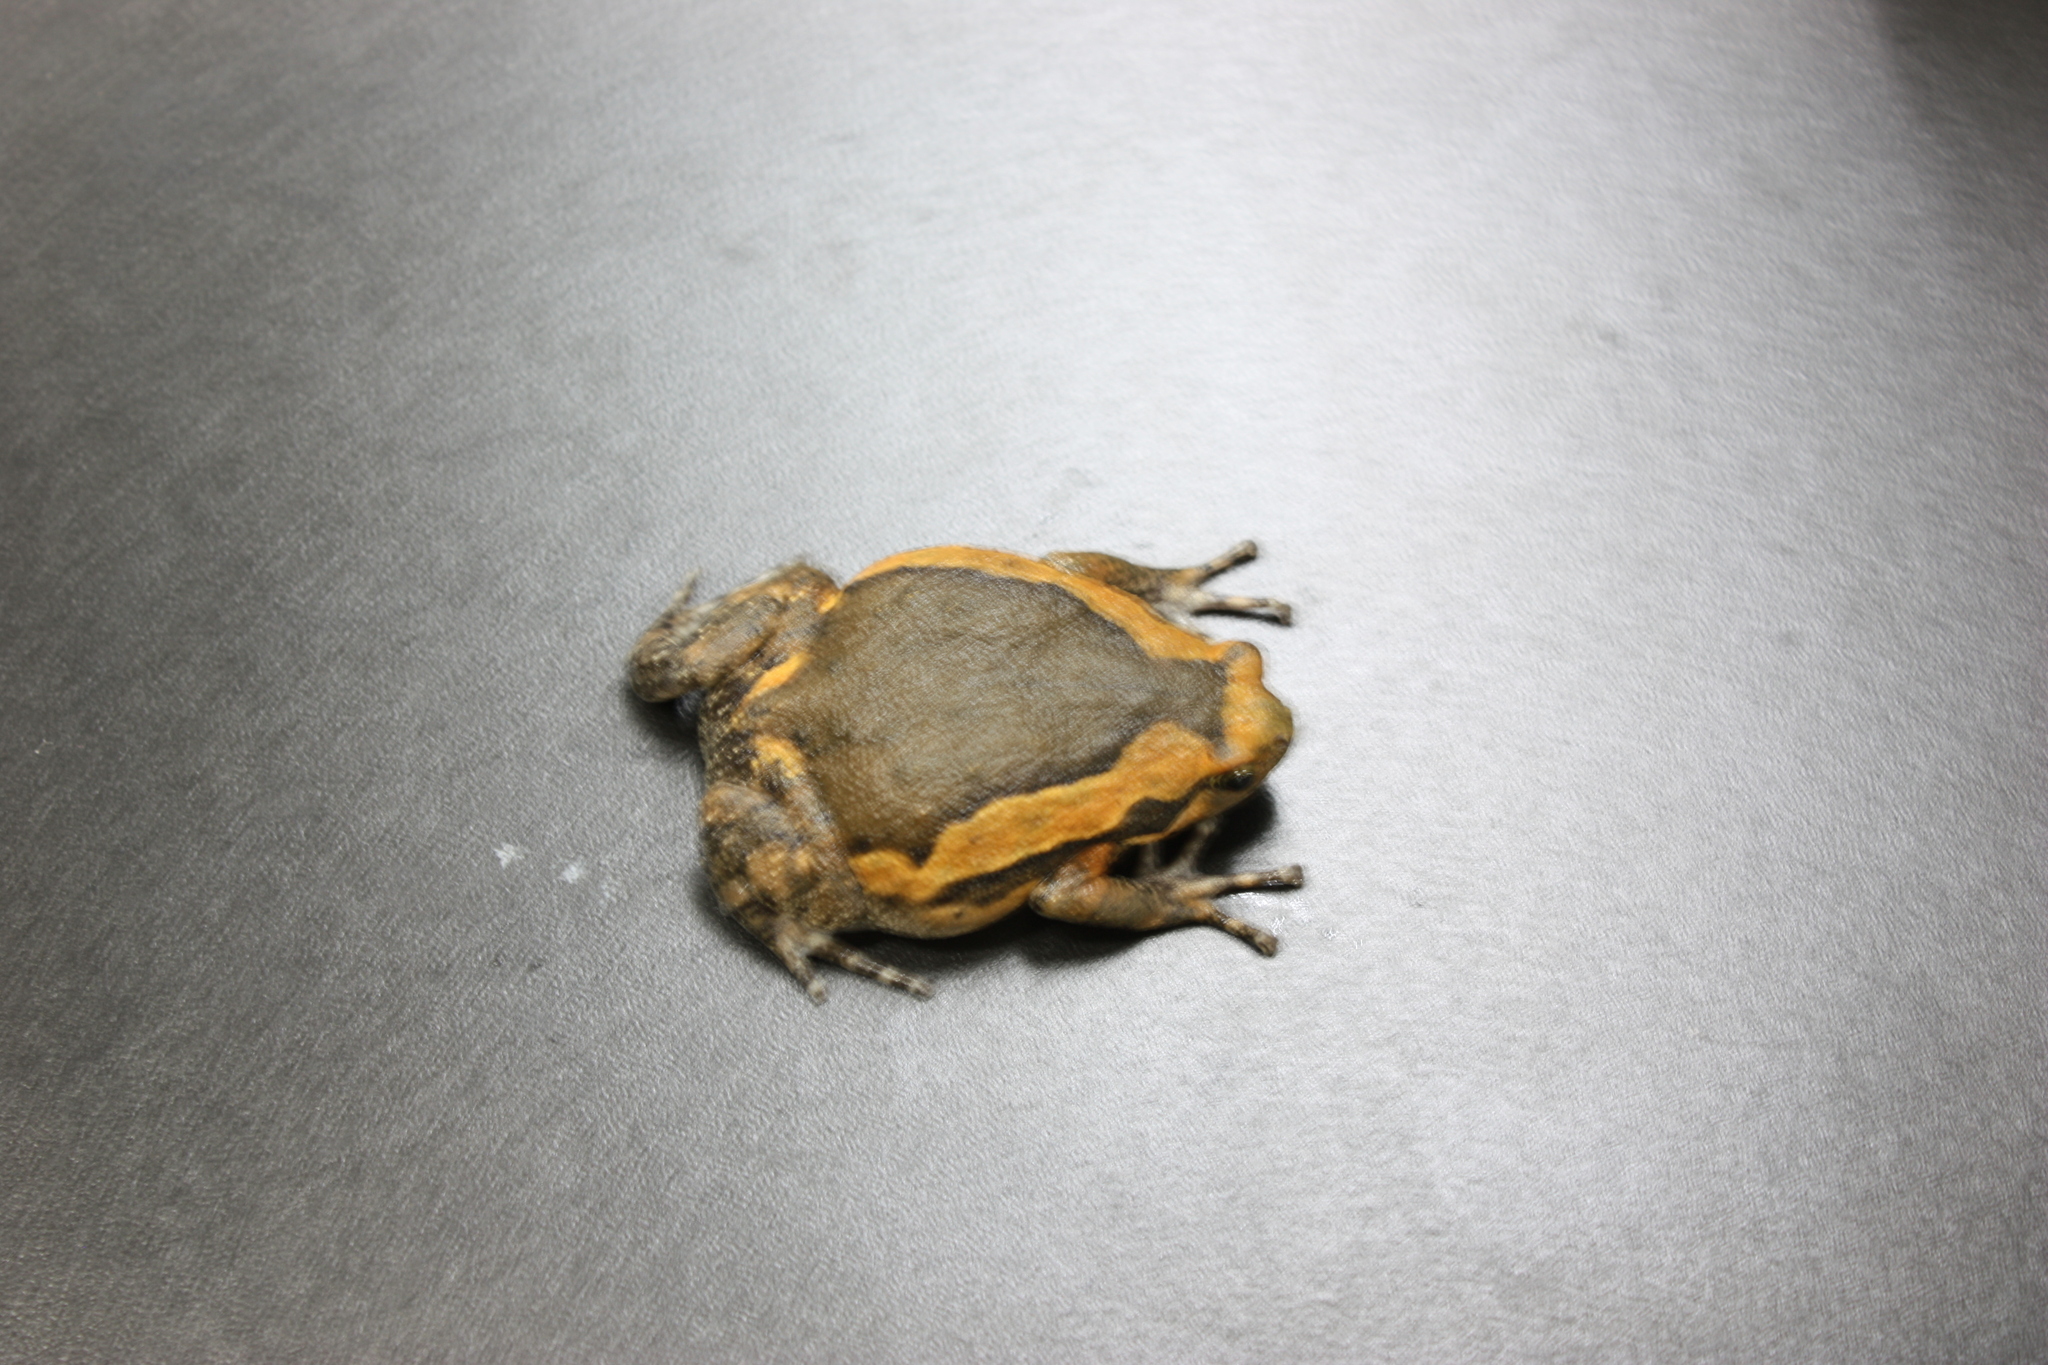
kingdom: Animalia
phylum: Chordata
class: Amphibia
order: Anura
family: Microhylidae
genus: Kaloula
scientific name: Kaloula pulchra
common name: Common,banded bullfrog
